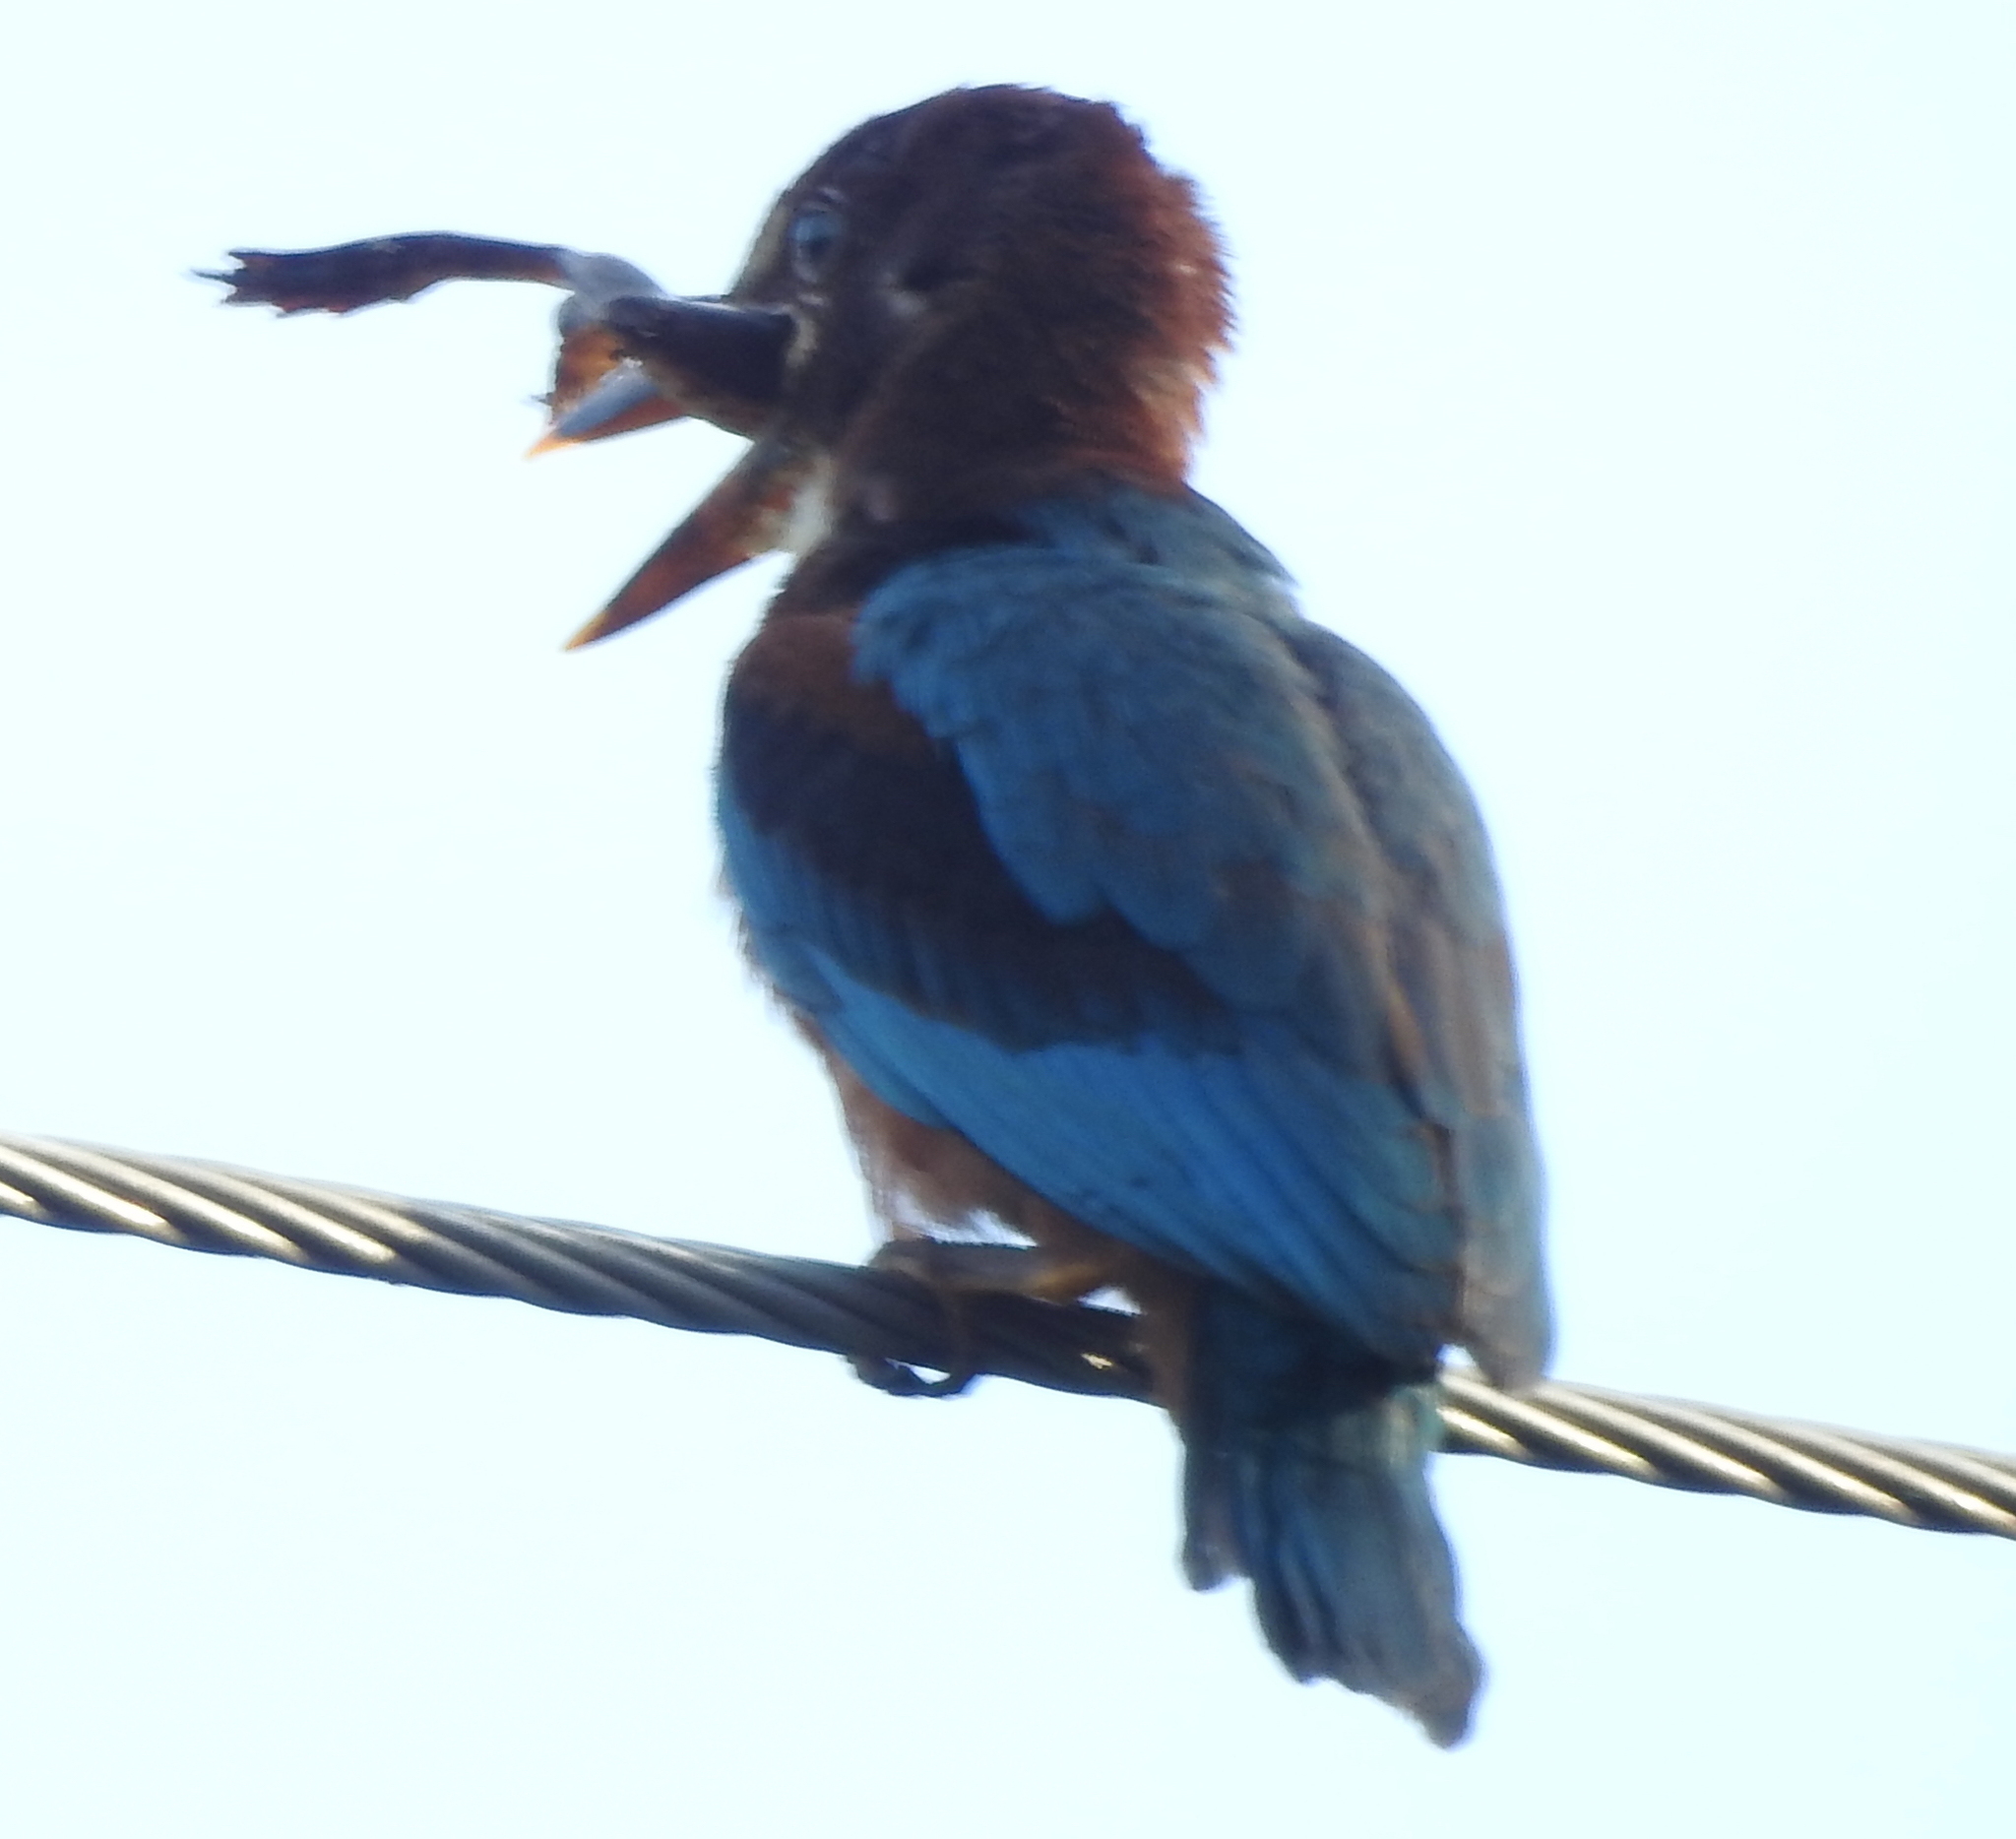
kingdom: Animalia
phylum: Chordata
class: Aves
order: Coraciiformes
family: Alcedinidae
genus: Halcyon
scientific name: Halcyon smyrnensis
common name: White-throated kingfisher
